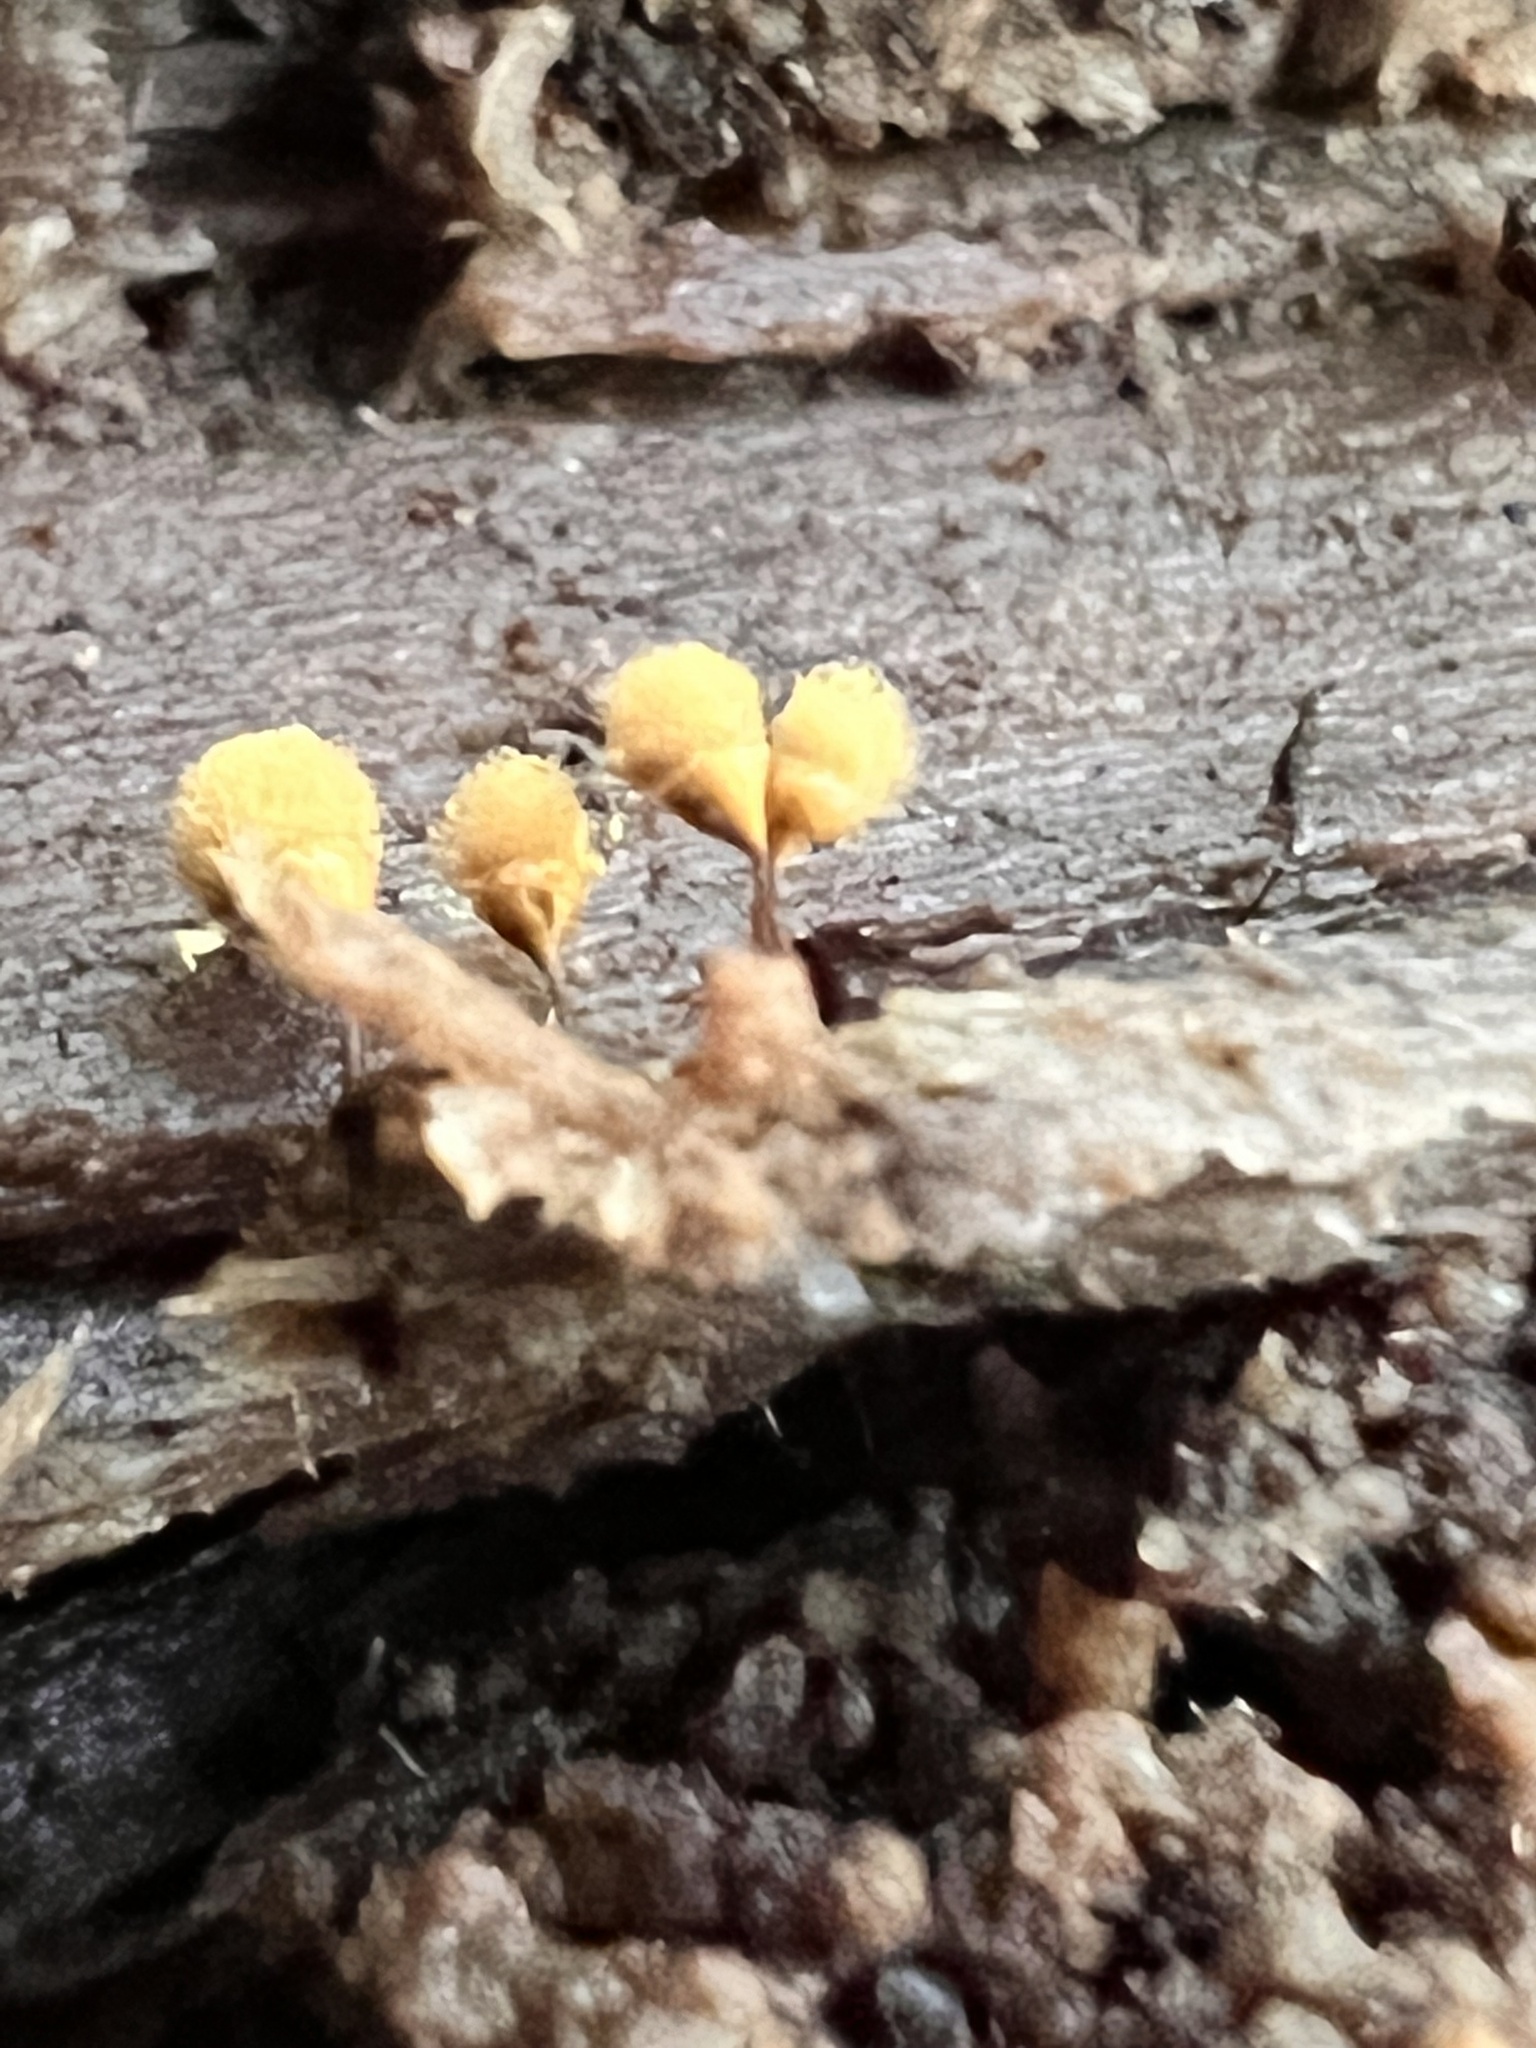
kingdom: Protozoa
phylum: Mycetozoa
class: Myxomycetes
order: Trichiales
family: Arcyriaceae
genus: Hemitrichia
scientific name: Hemitrichia calyculata
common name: Push pin slime mold
